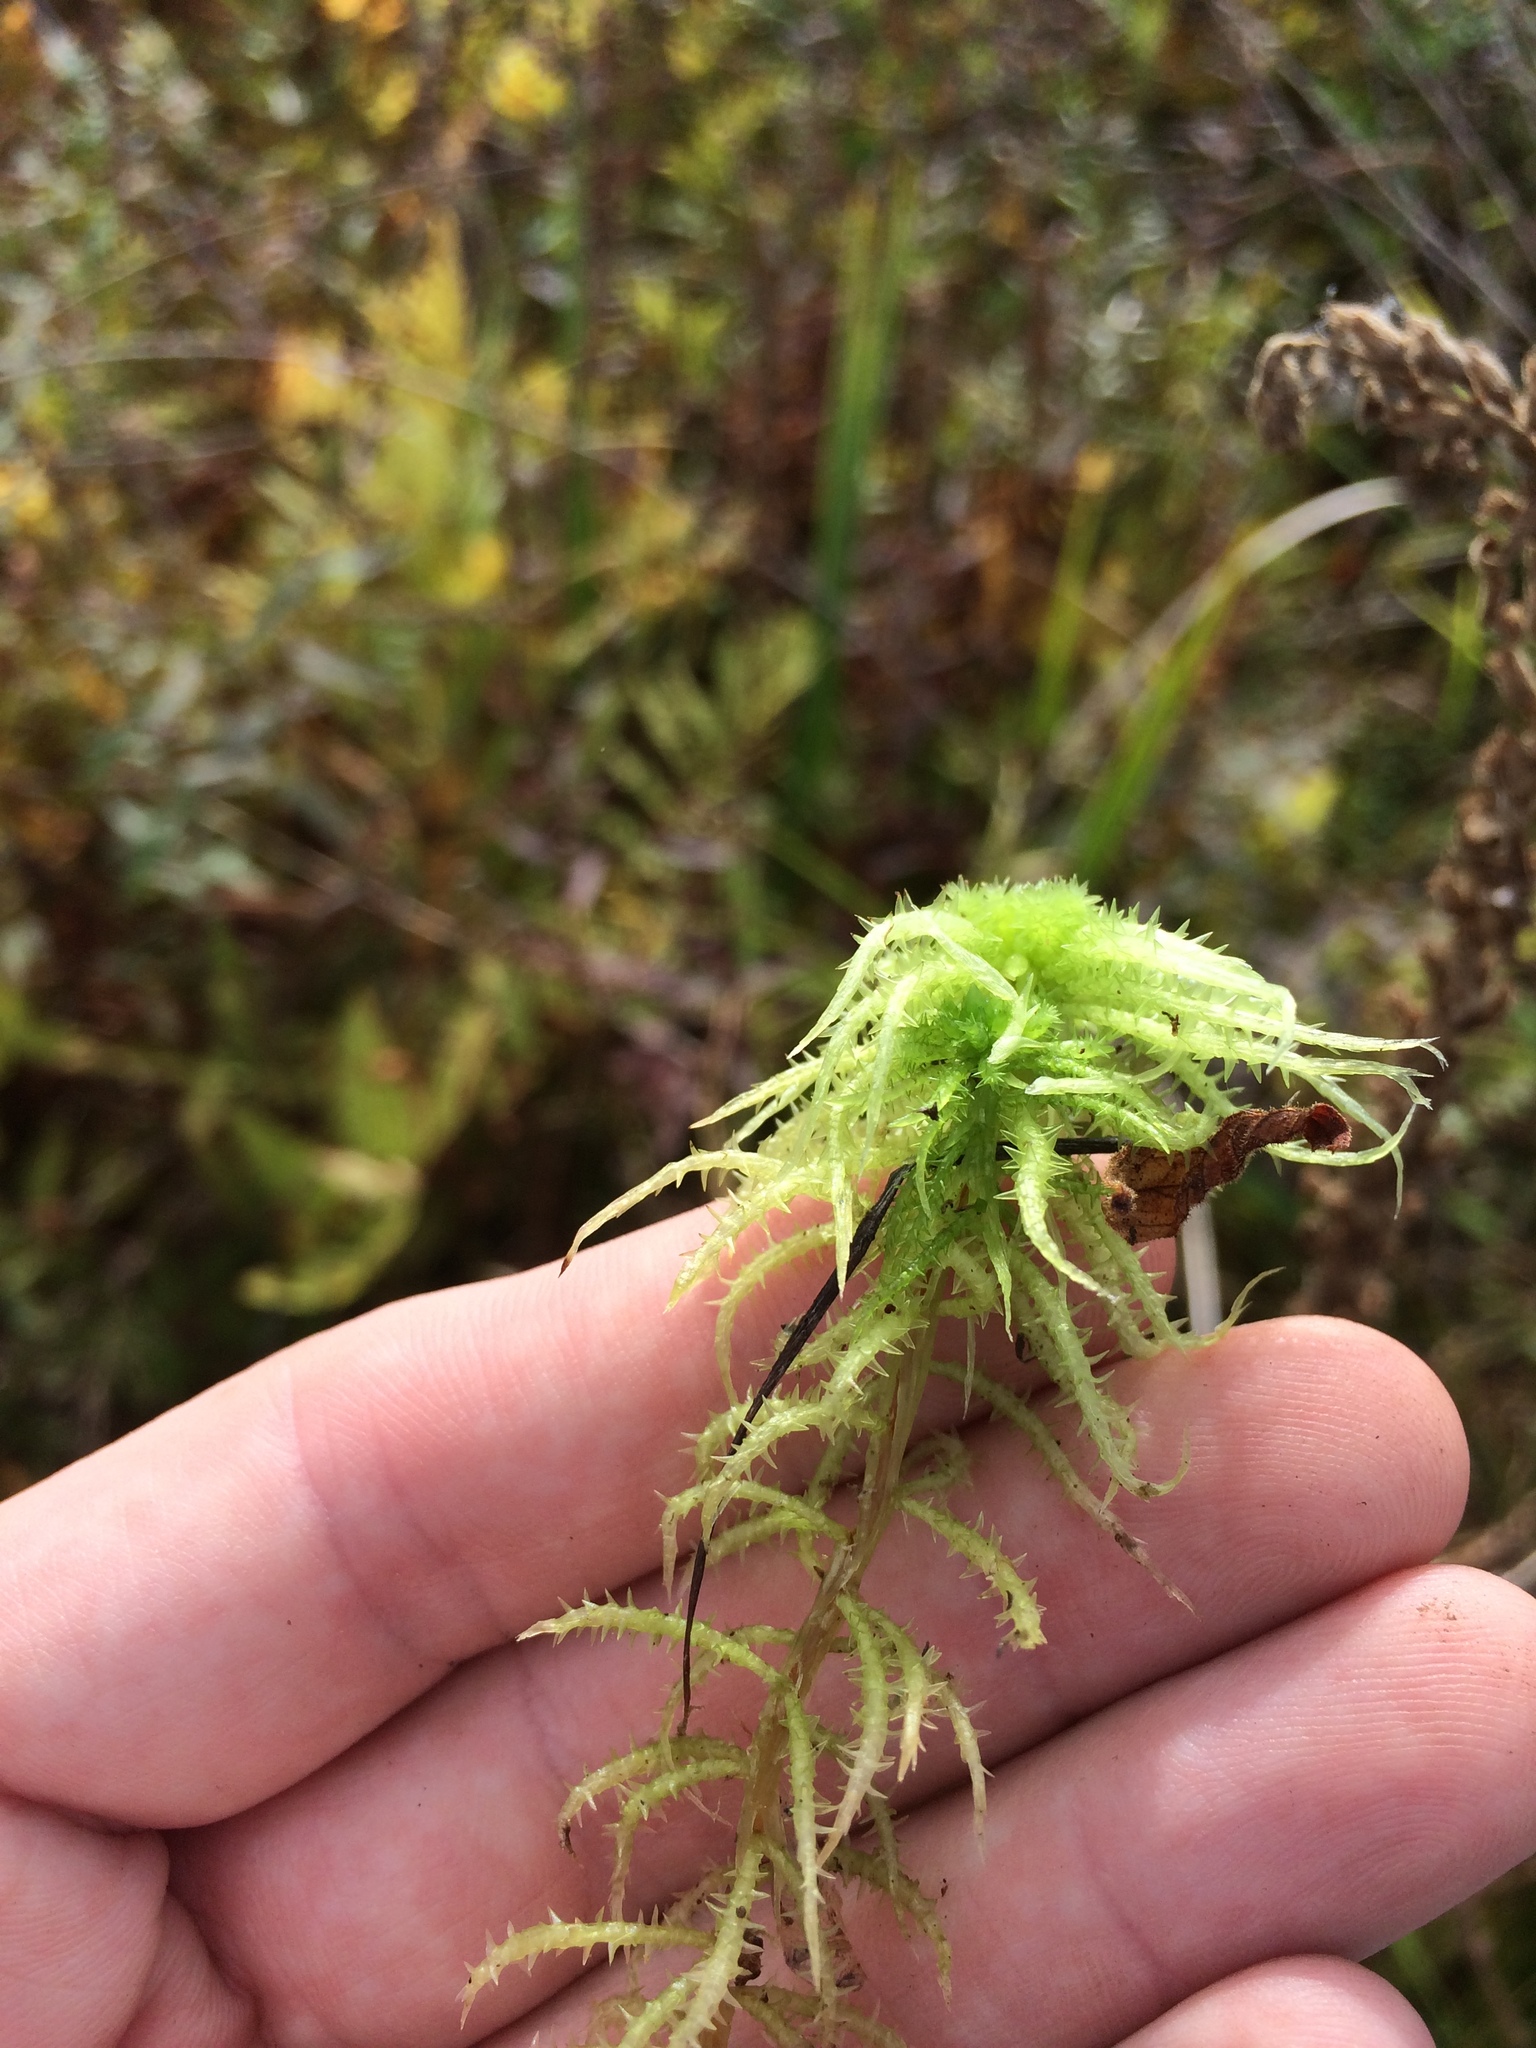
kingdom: Plantae
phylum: Bryophyta
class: Sphagnopsida
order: Sphagnales
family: Sphagnaceae
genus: Sphagnum
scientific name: Sphagnum squarrosum
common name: Shaggy peat moss
